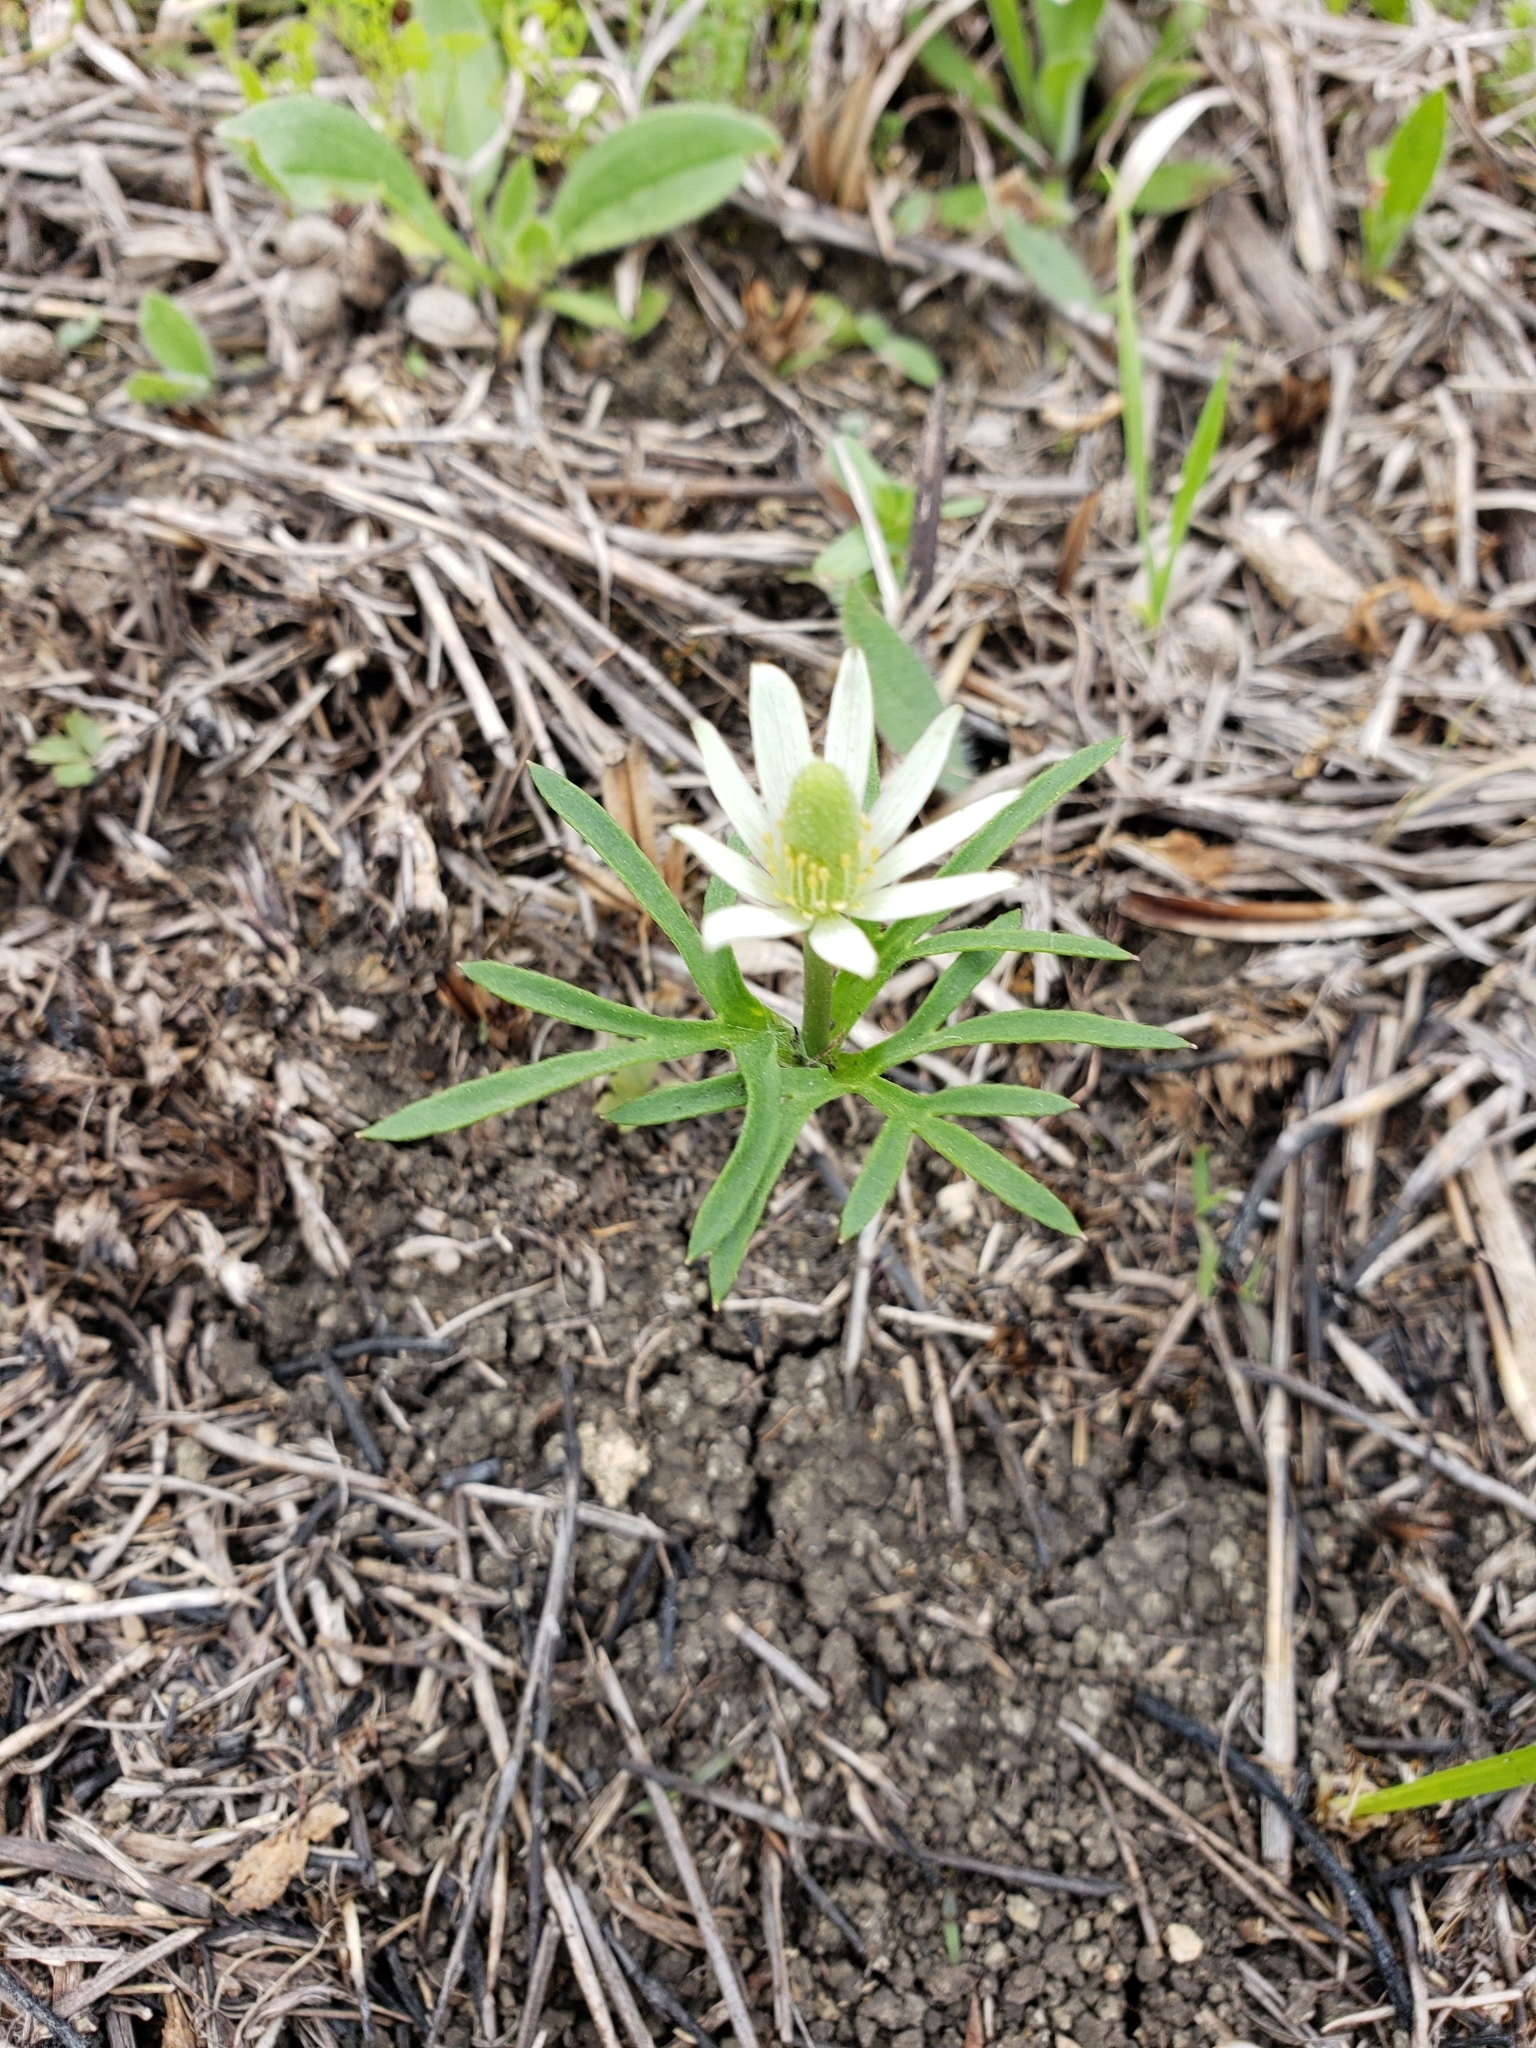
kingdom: Plantae
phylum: Tracheophyta
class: Magnoliopsida
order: Ranunculales
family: Ranunculaceae
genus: Anemone
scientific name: Anemone berlandieri
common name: Ten-petal anemone
